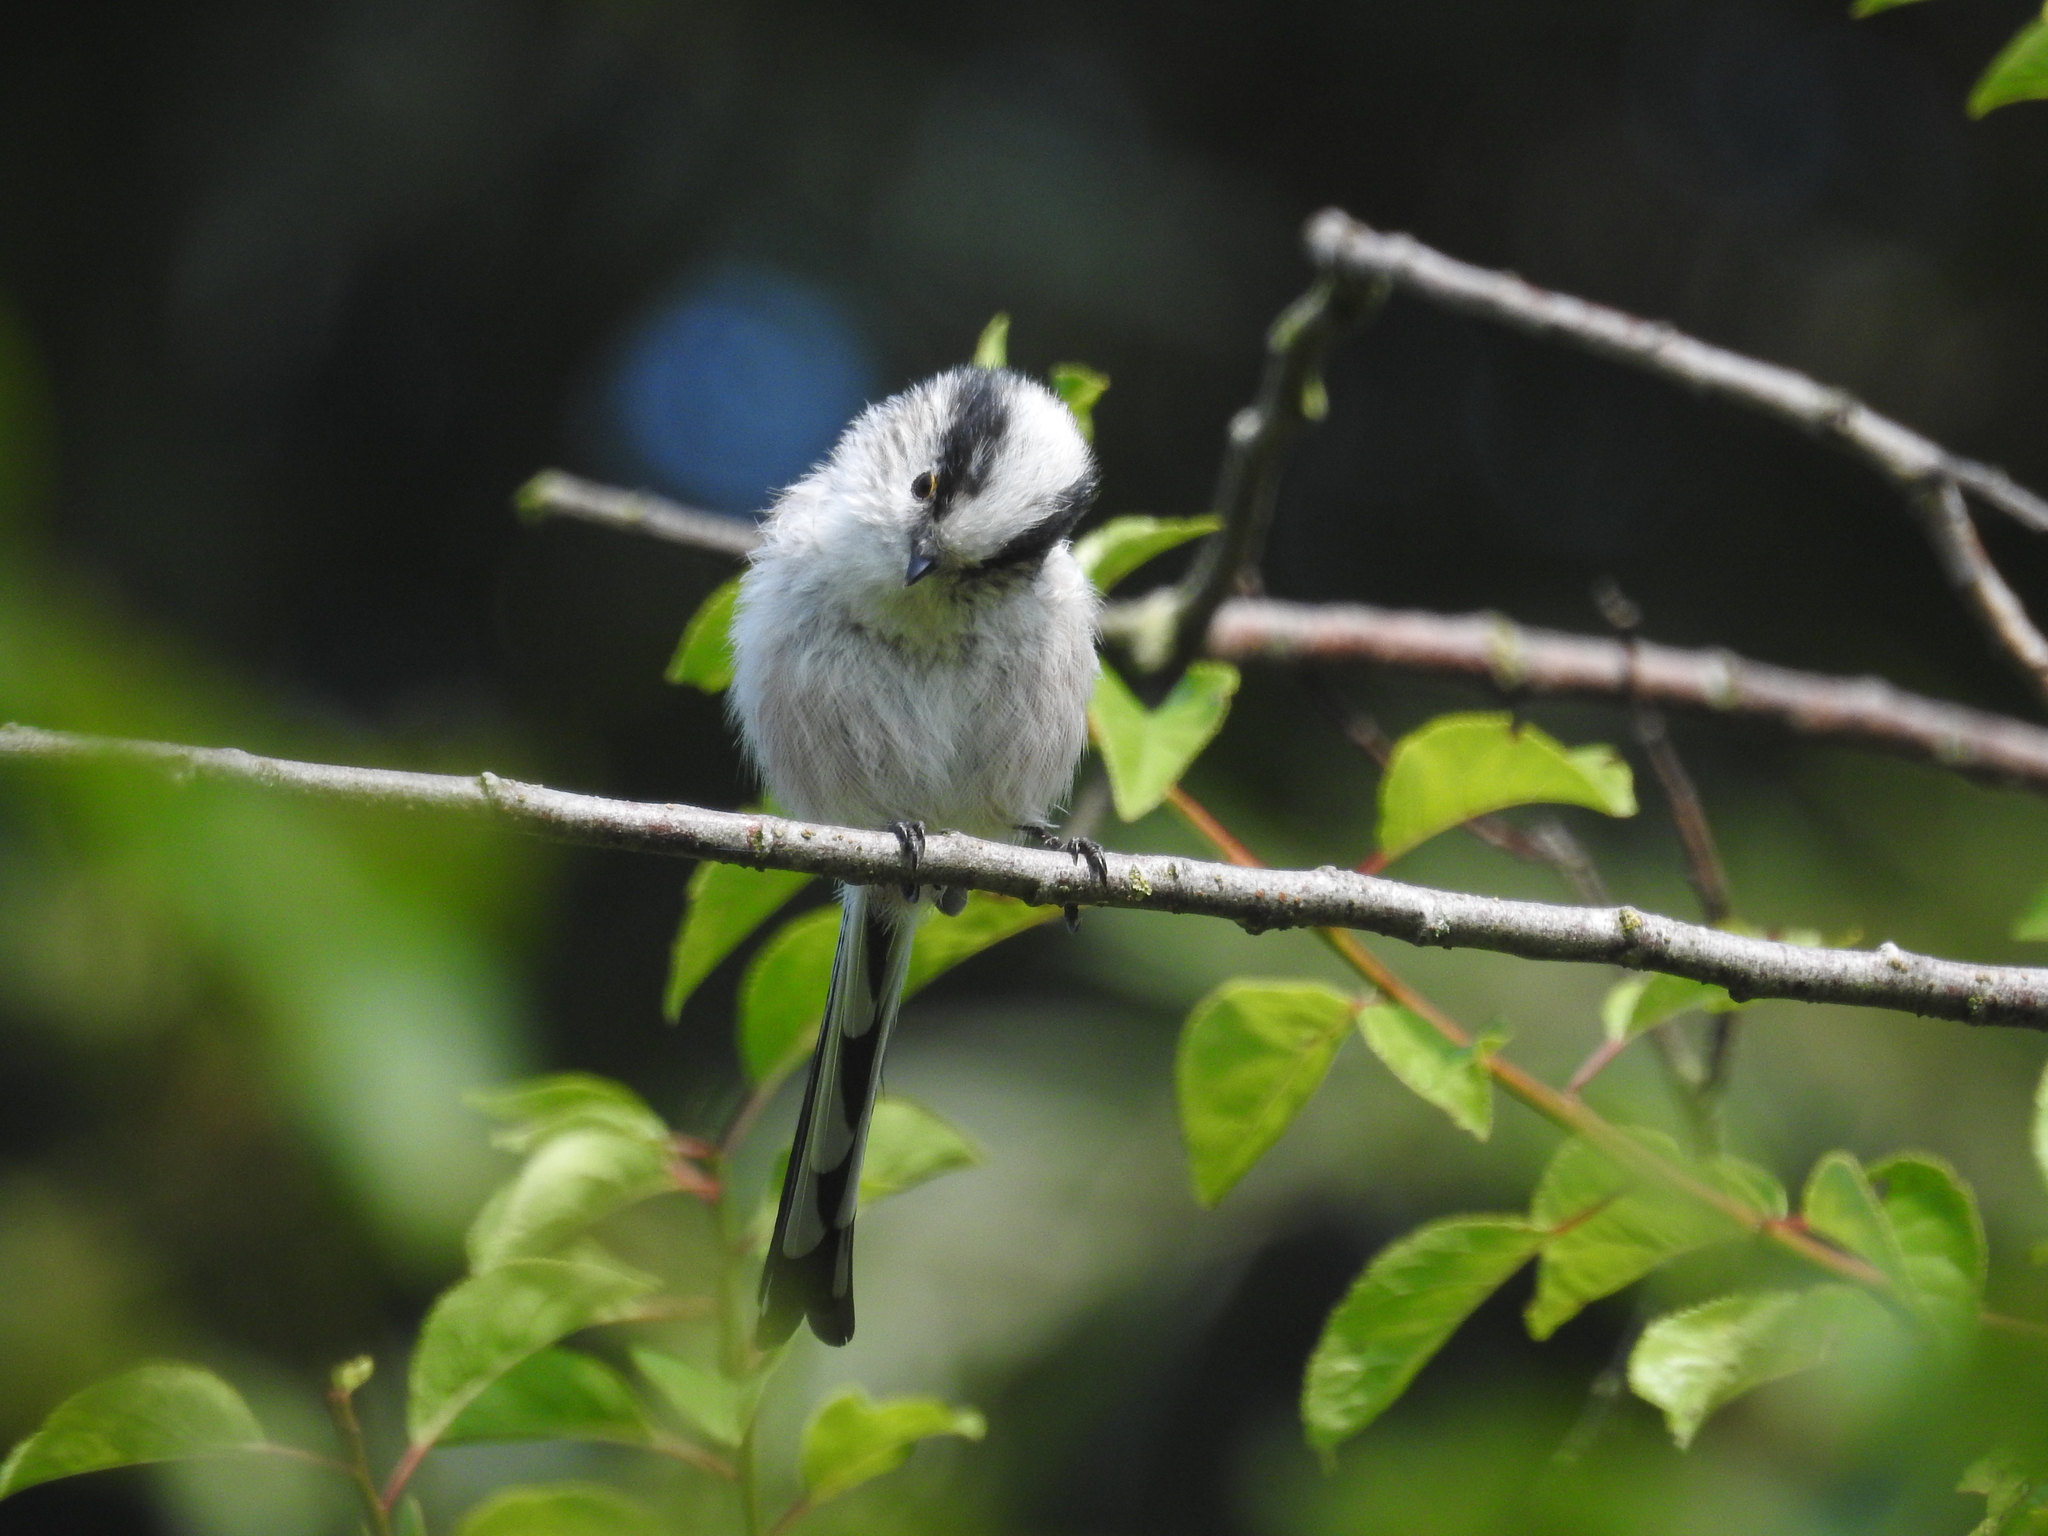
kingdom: Animalia
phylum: Chordata
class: Aves
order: Passeriformes
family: Aegithalidae
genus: Aegithalos
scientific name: Aegithalos caudatus
